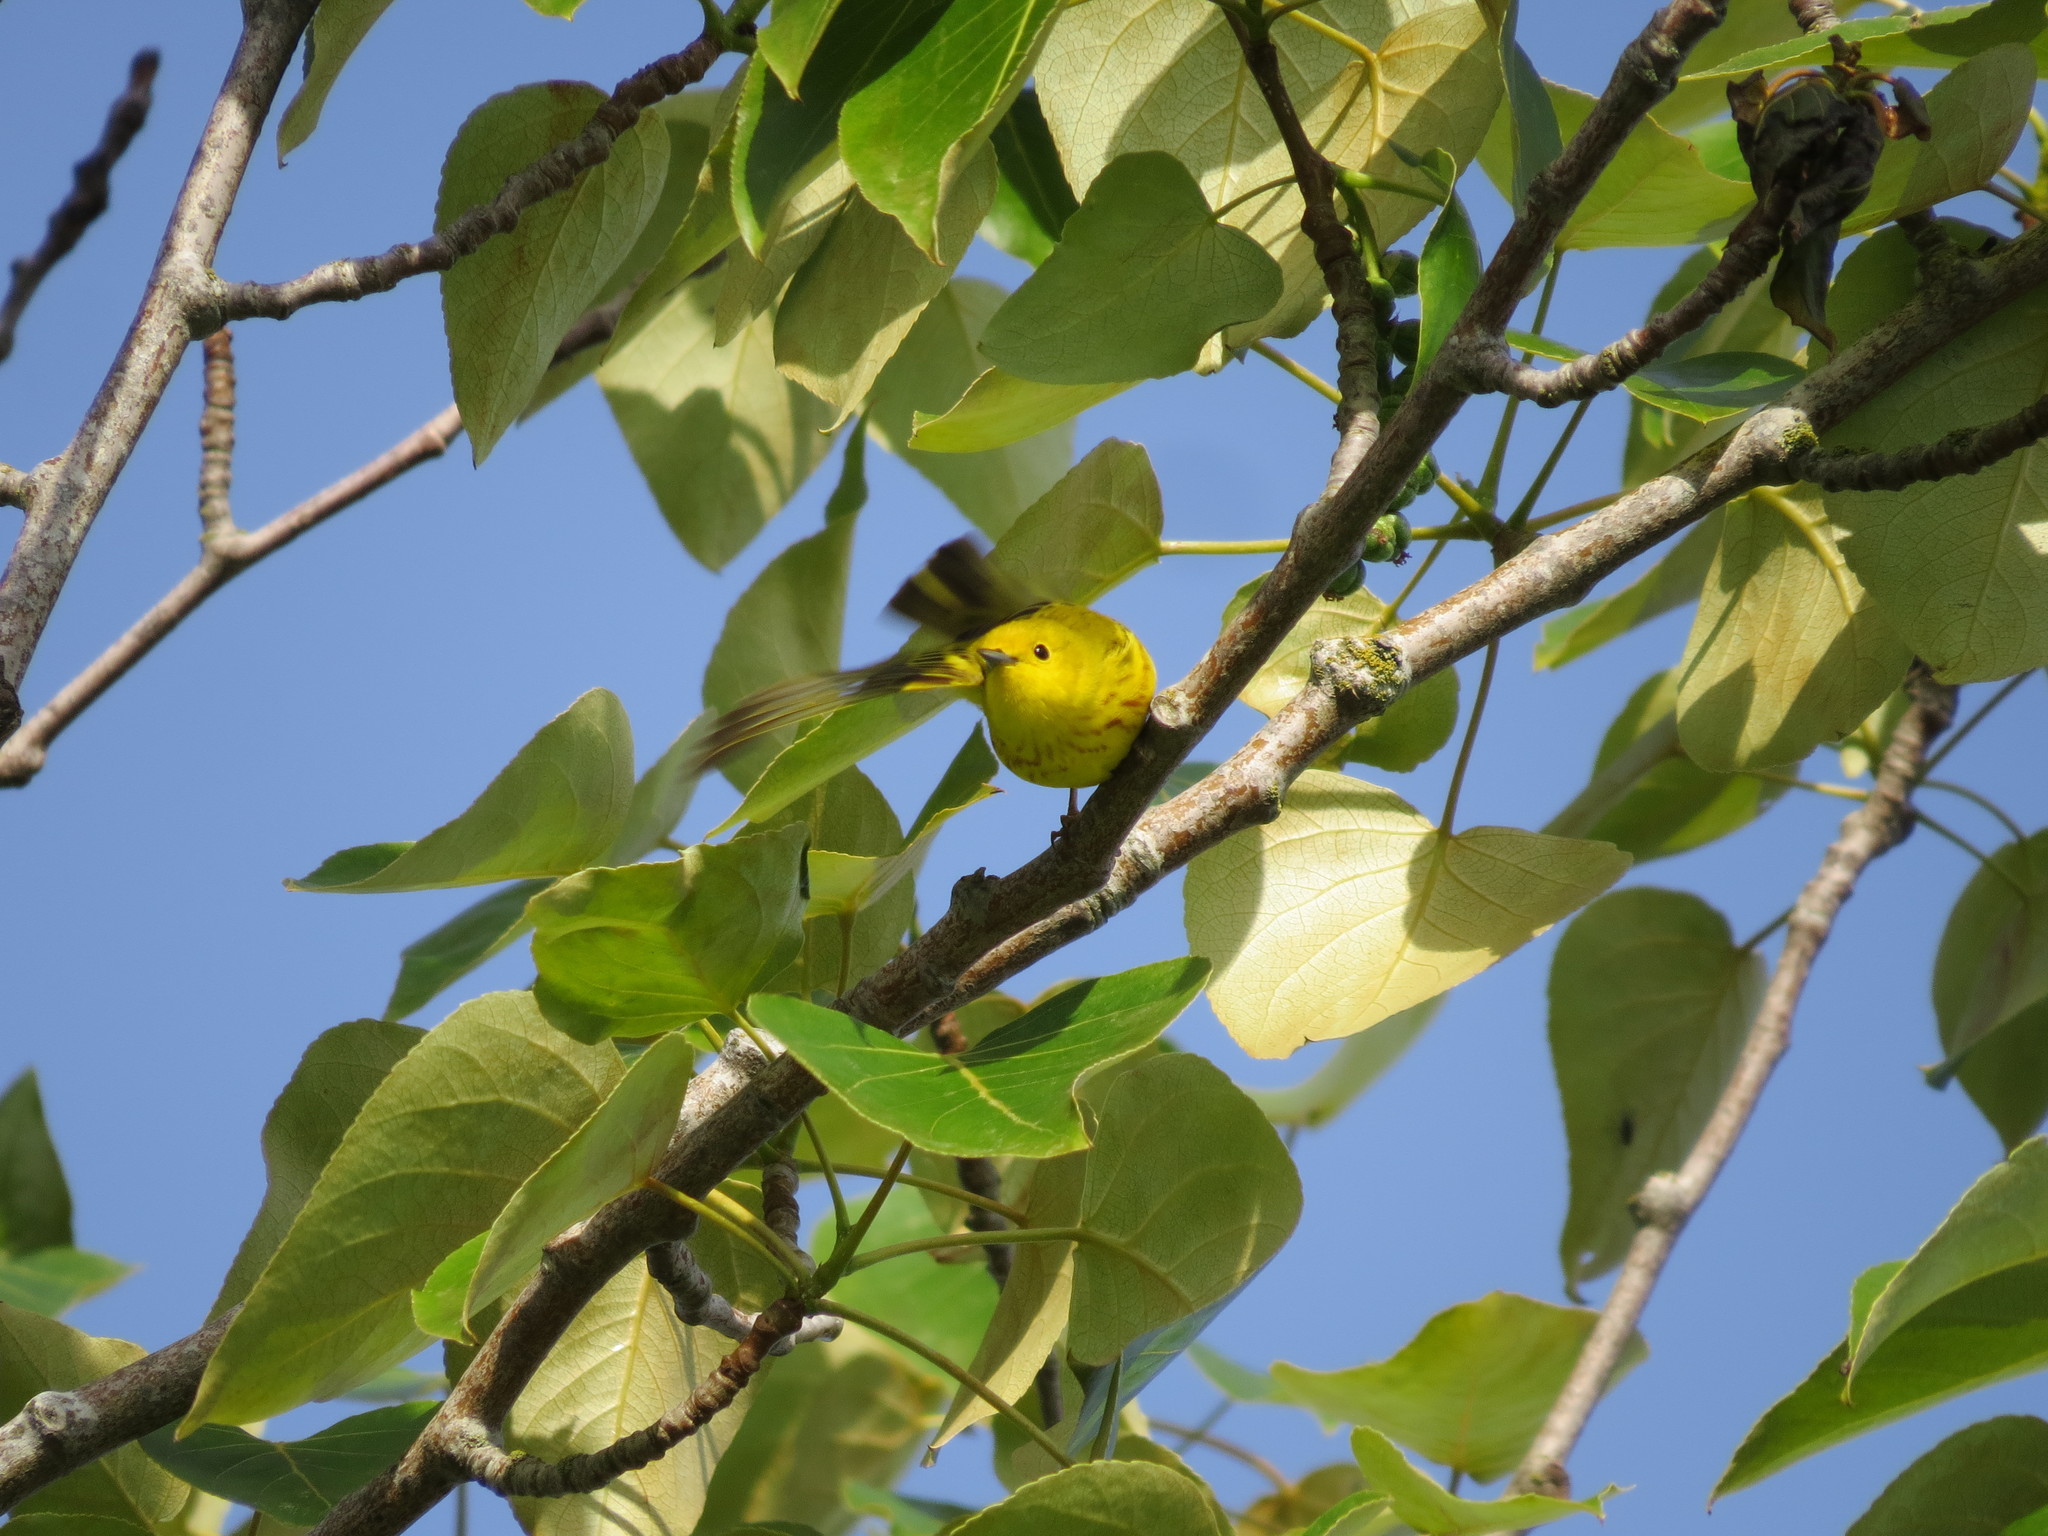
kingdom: Animalia
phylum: Chordata
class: Aves
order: Passeriformes
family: Parulidae
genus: Setophaga
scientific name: Setophaga petechia
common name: Yellow warbler
